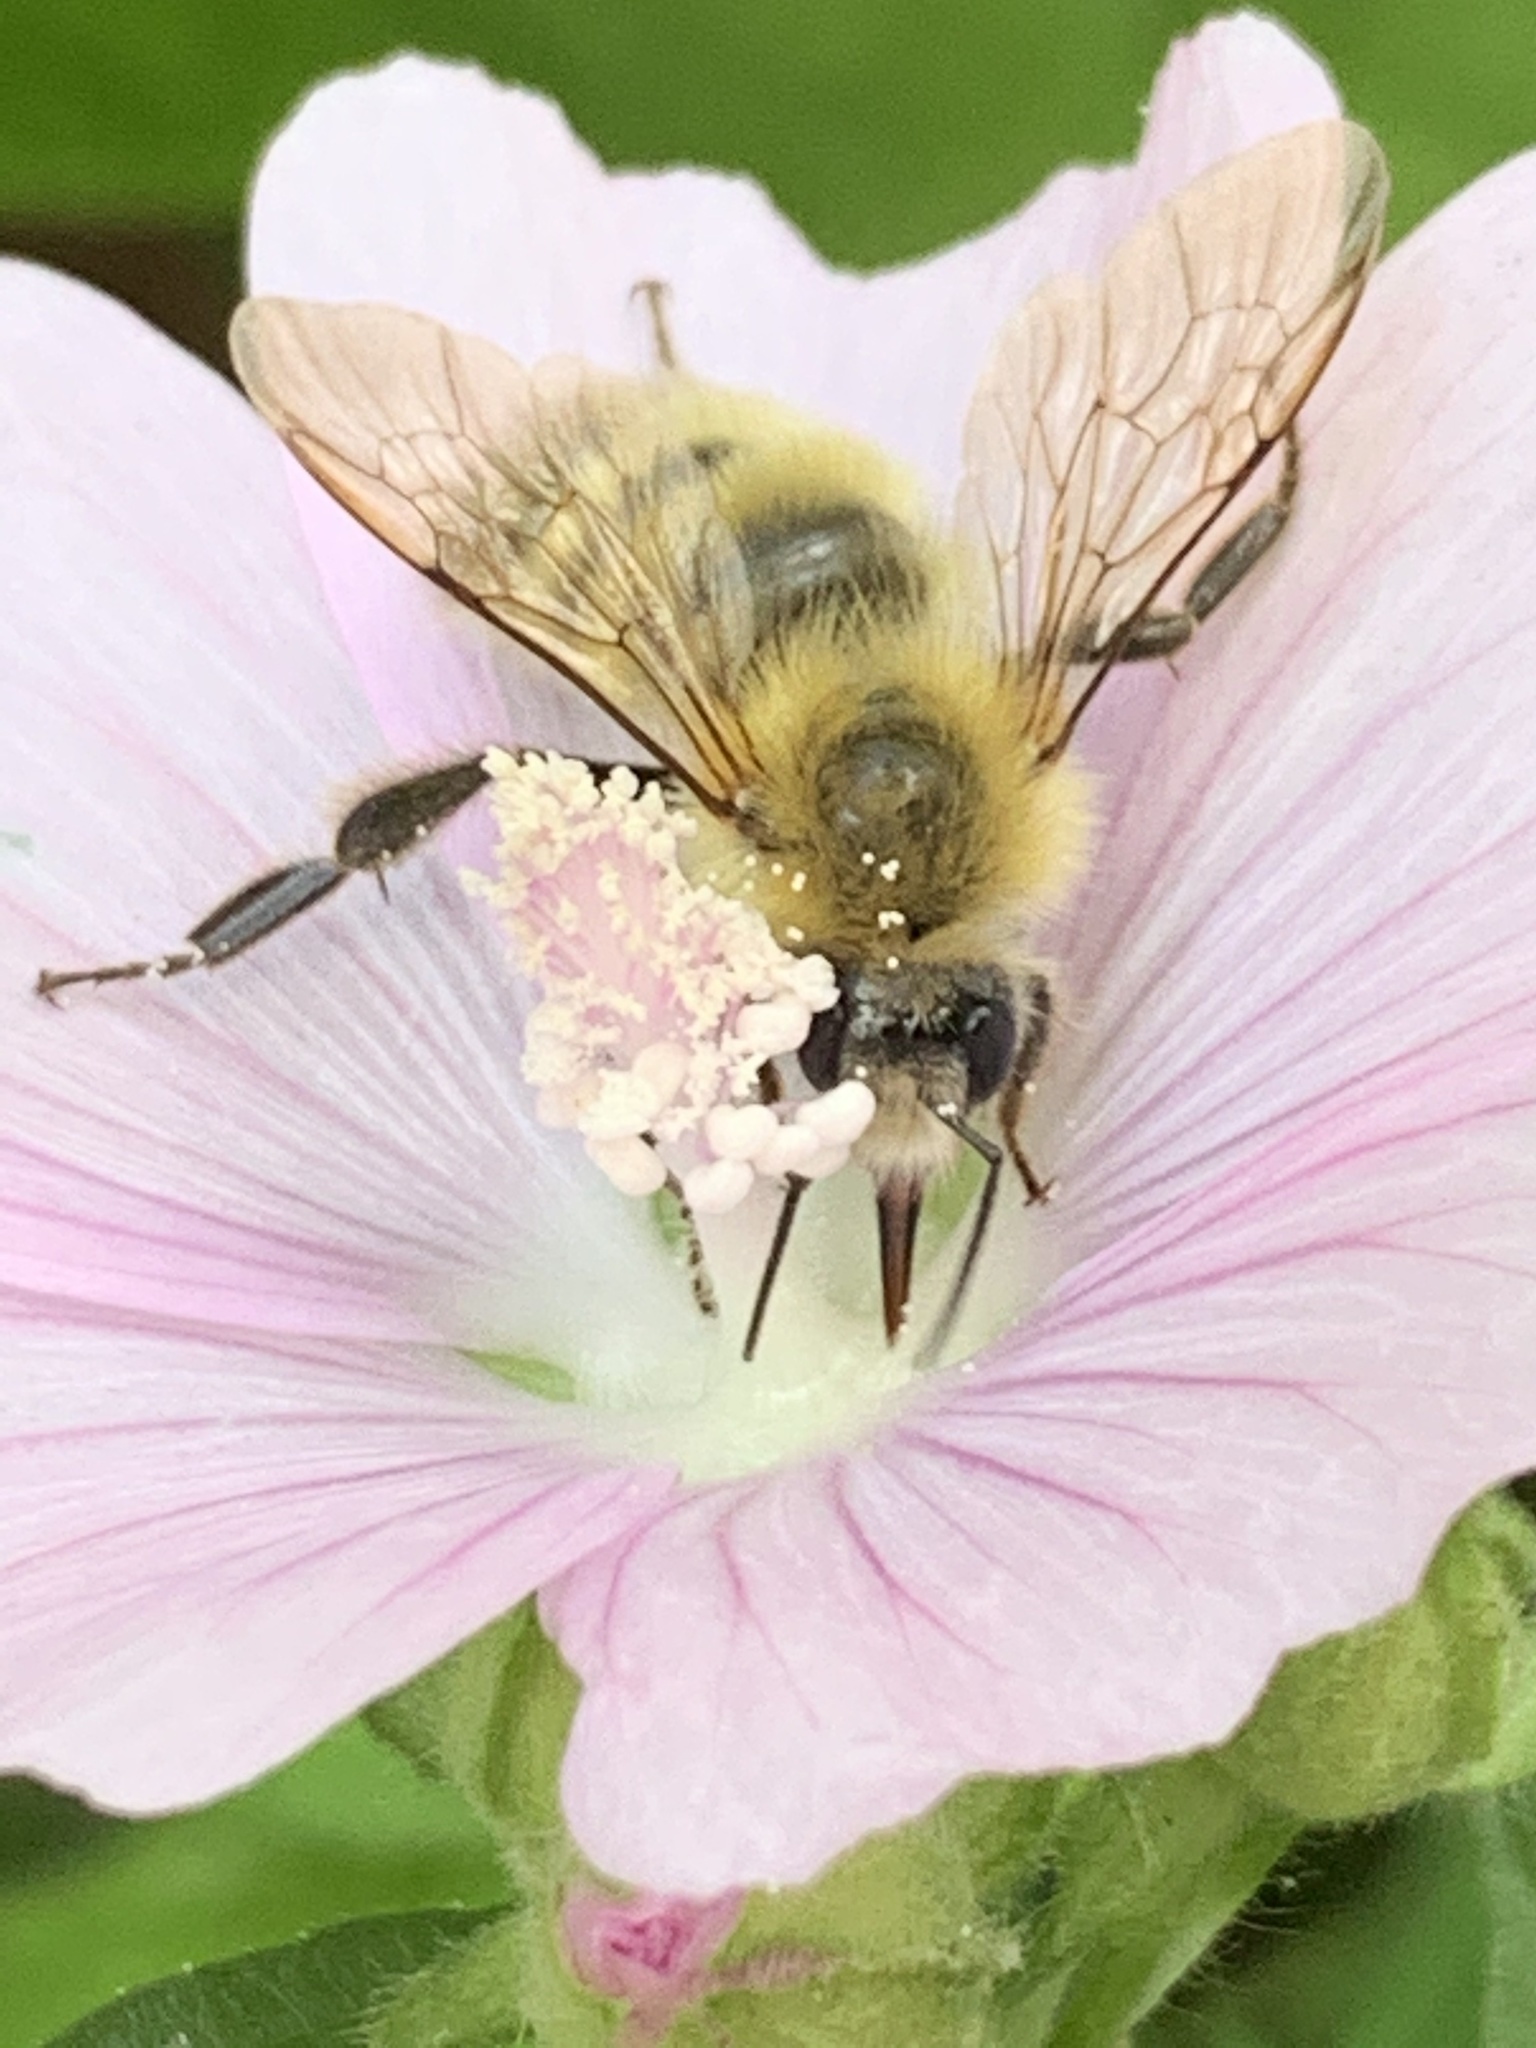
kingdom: Animalia
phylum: Arthropoda
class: Insecta
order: Hymenoptera
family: Apidae
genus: Bombus
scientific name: Bombus perplexus
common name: Confusing bumble bee
